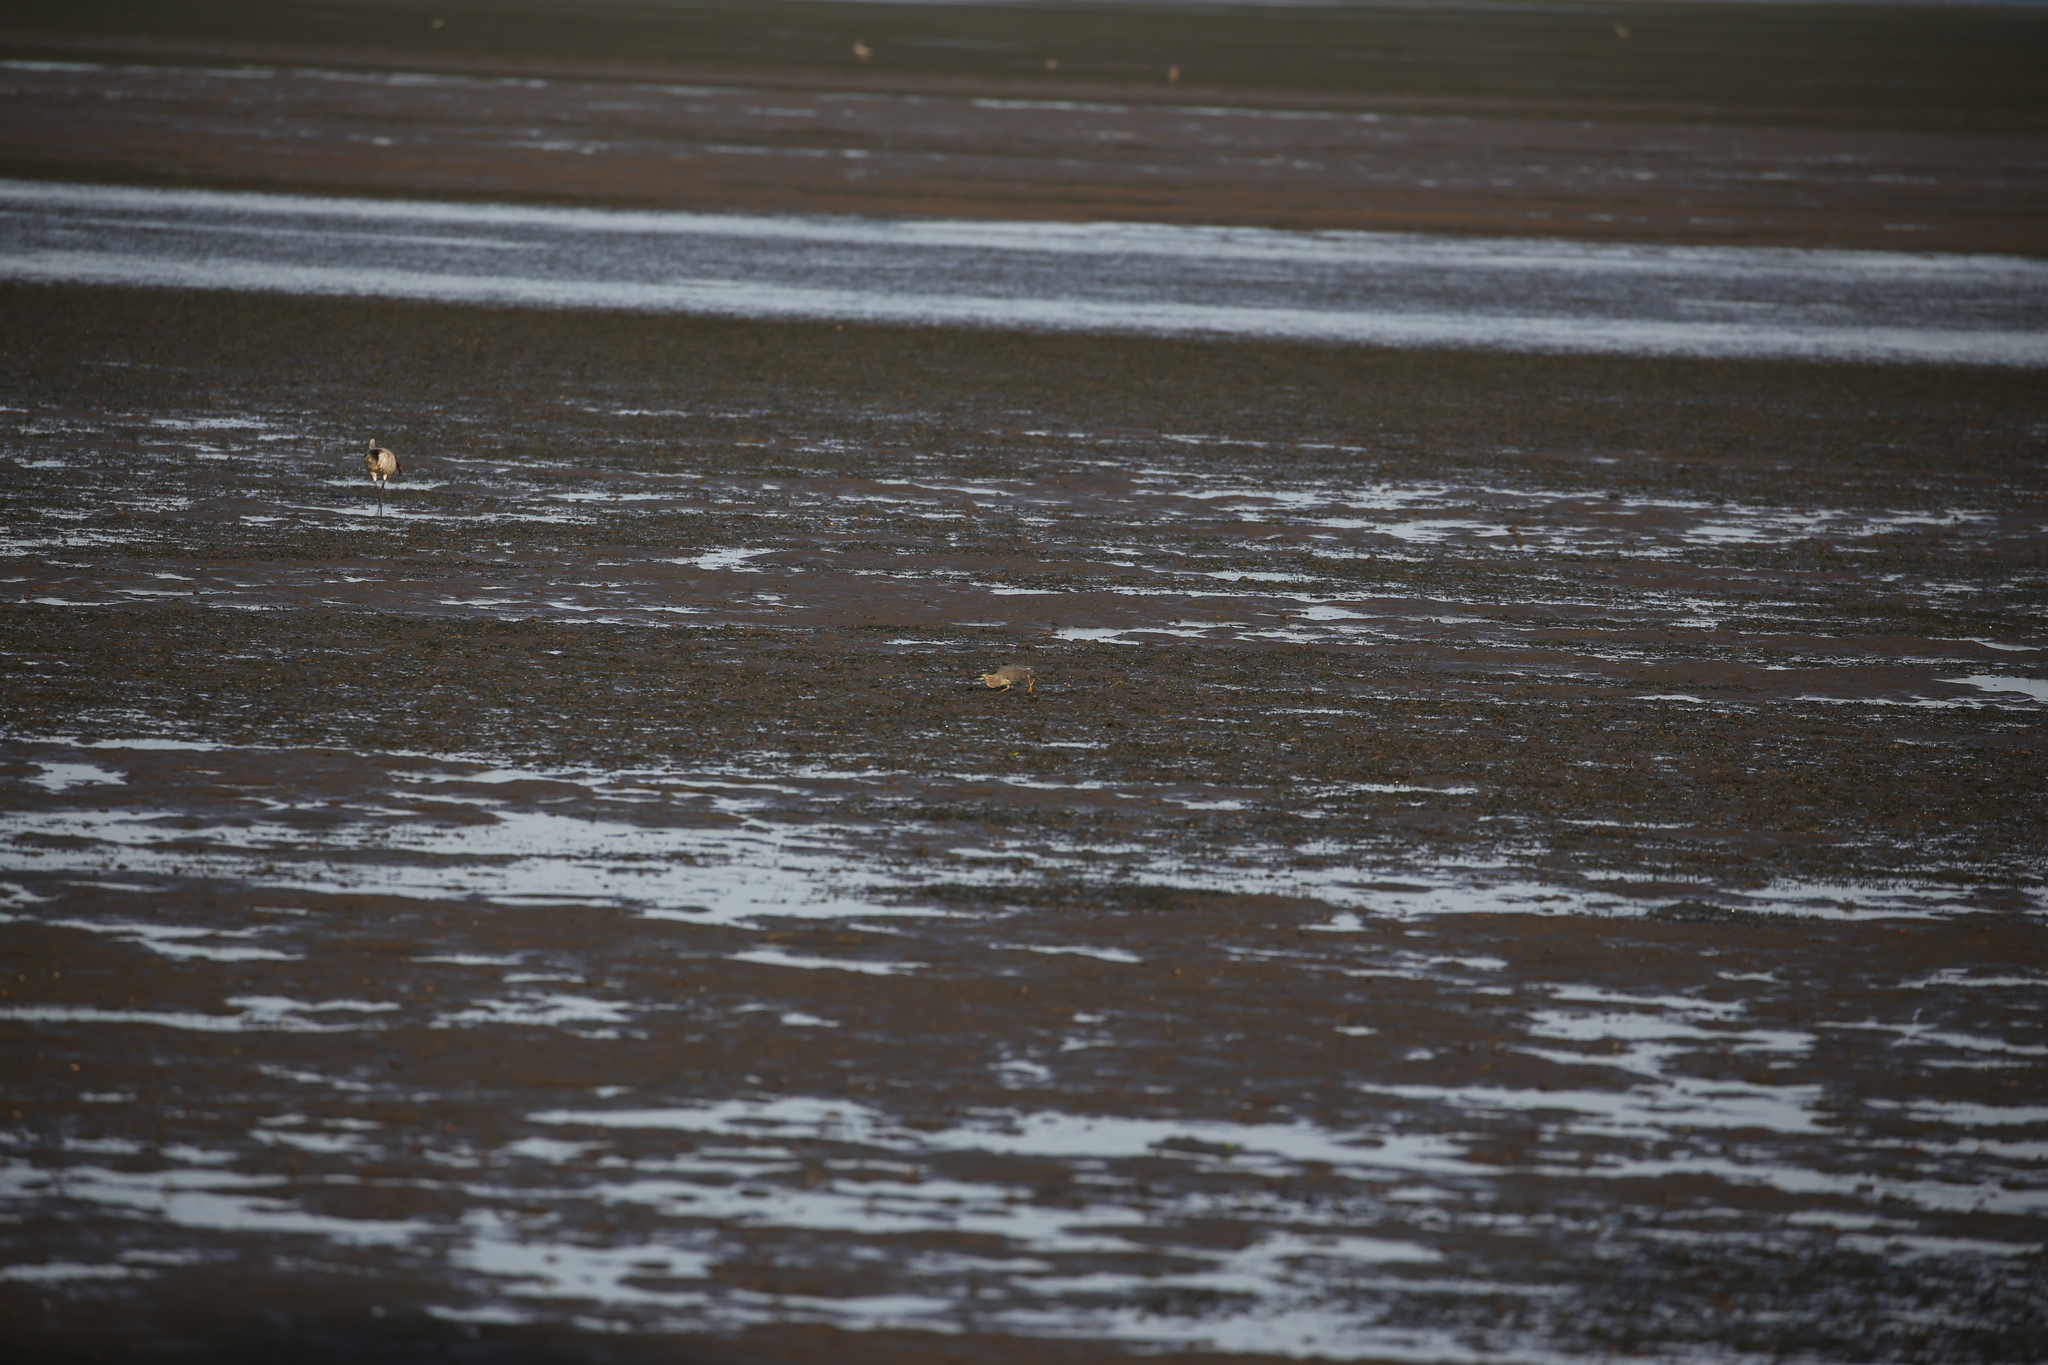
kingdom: Animalia
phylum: Chordata
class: Aves
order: Pelecaniformes
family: Ardeidae
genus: Butorides
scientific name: Butorides striata
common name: Striated heron
